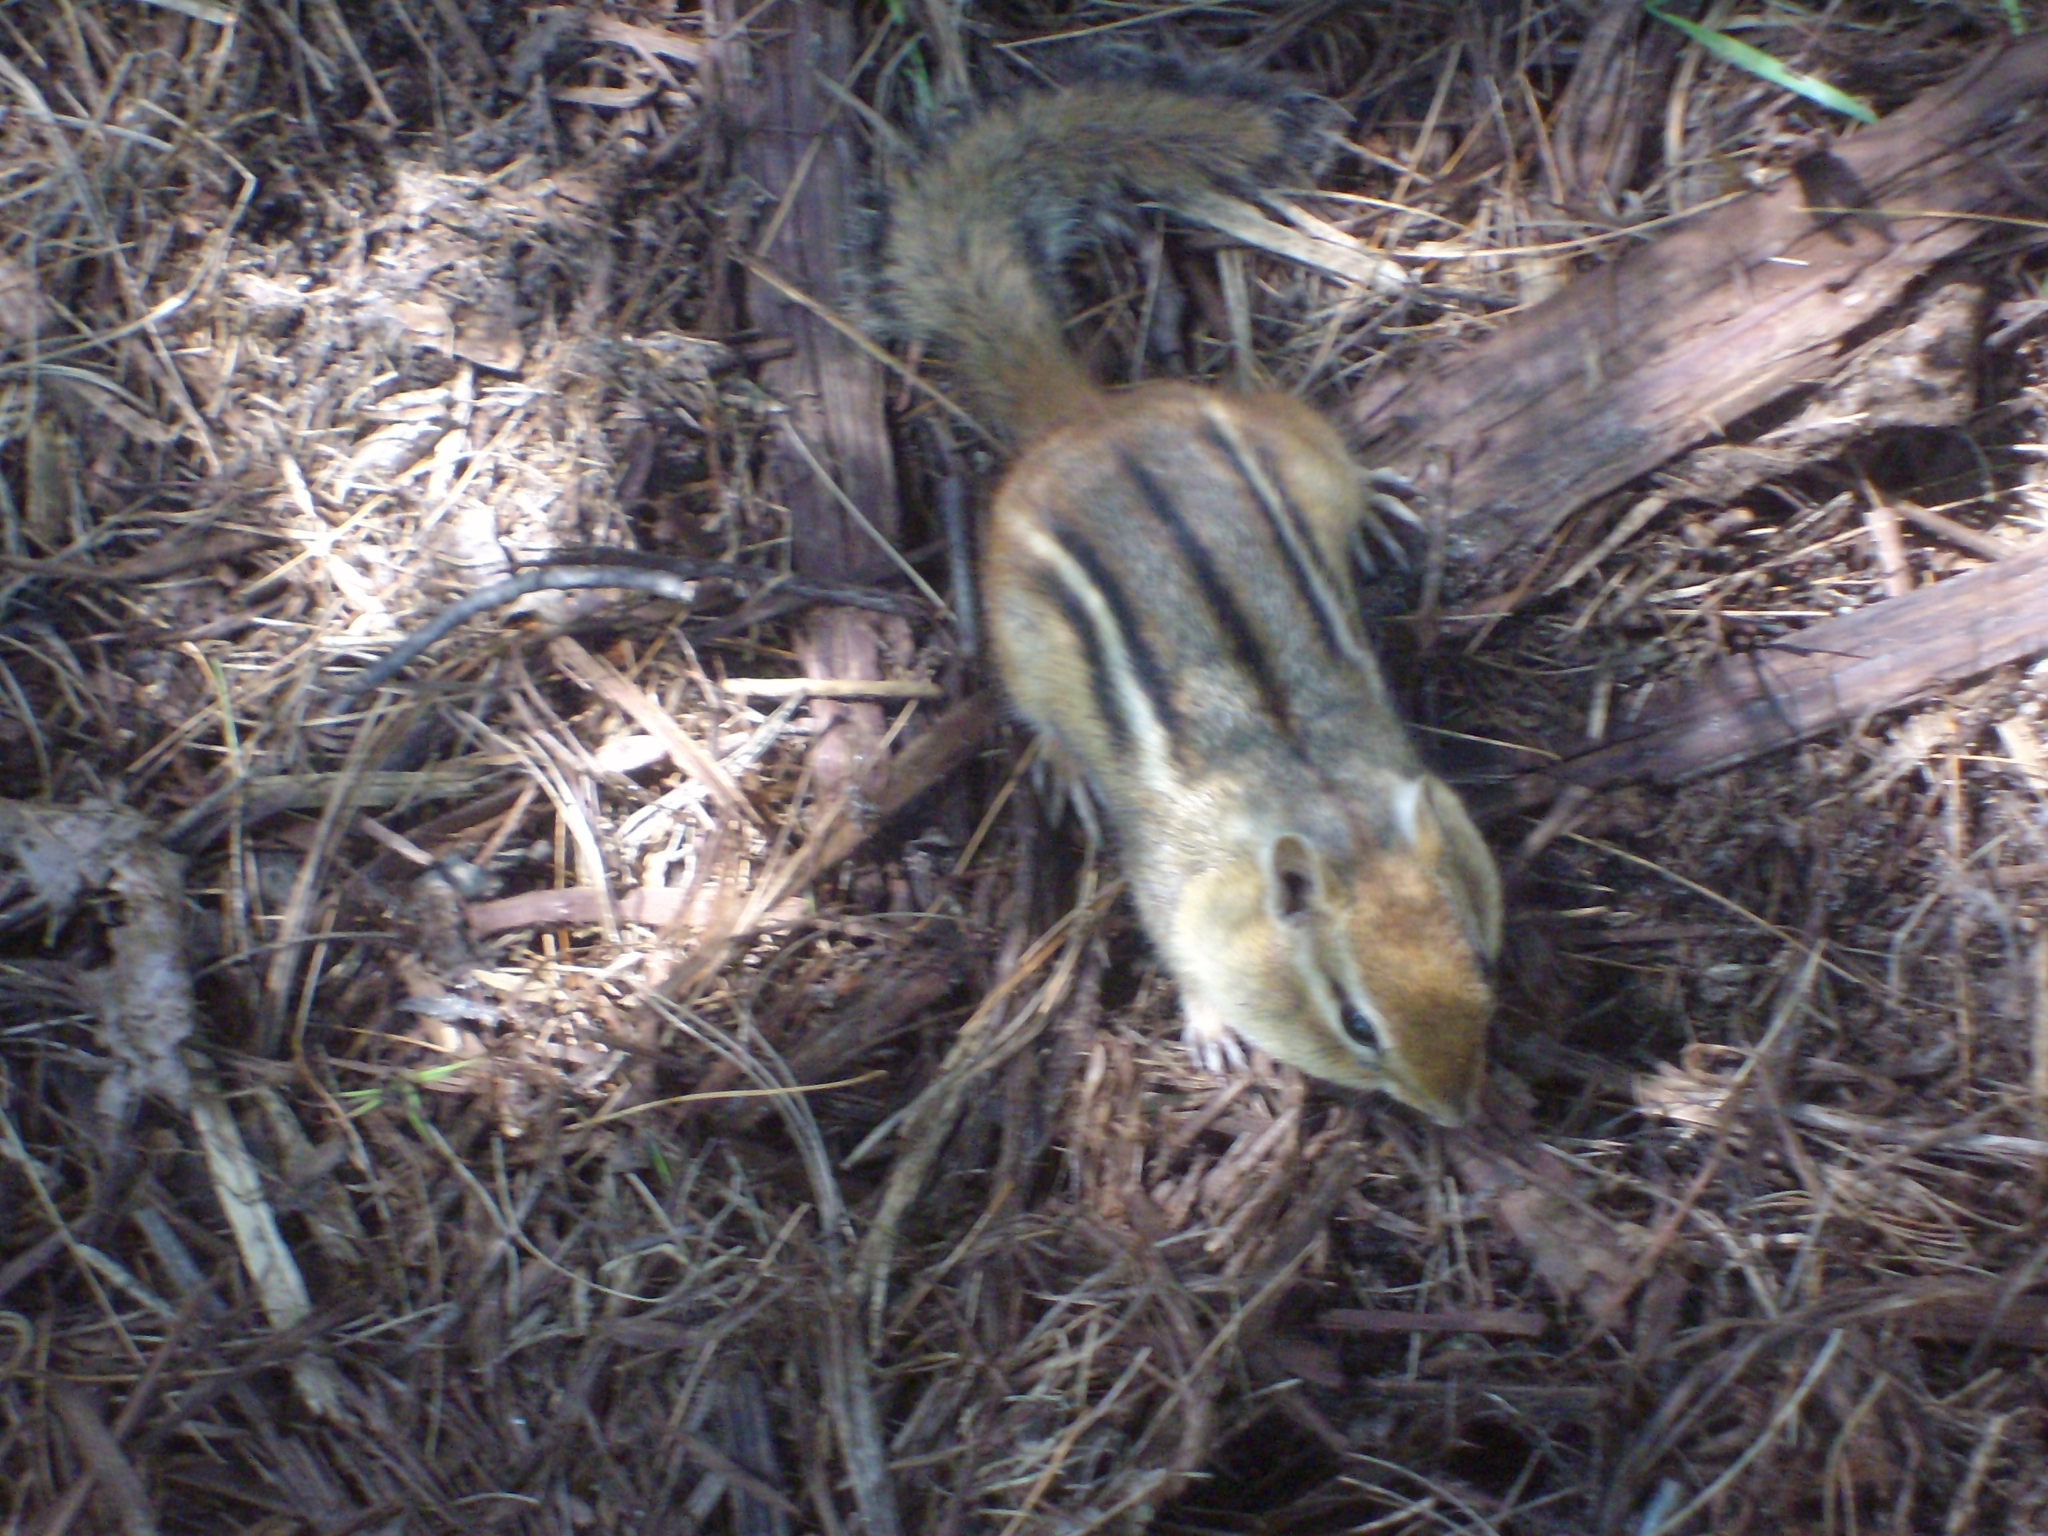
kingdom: Animalia
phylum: Chordata
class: Mammalia
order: Rodentia
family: Sciuridae
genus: Tamias
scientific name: Tamias striatus
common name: Eastern chipmunk
